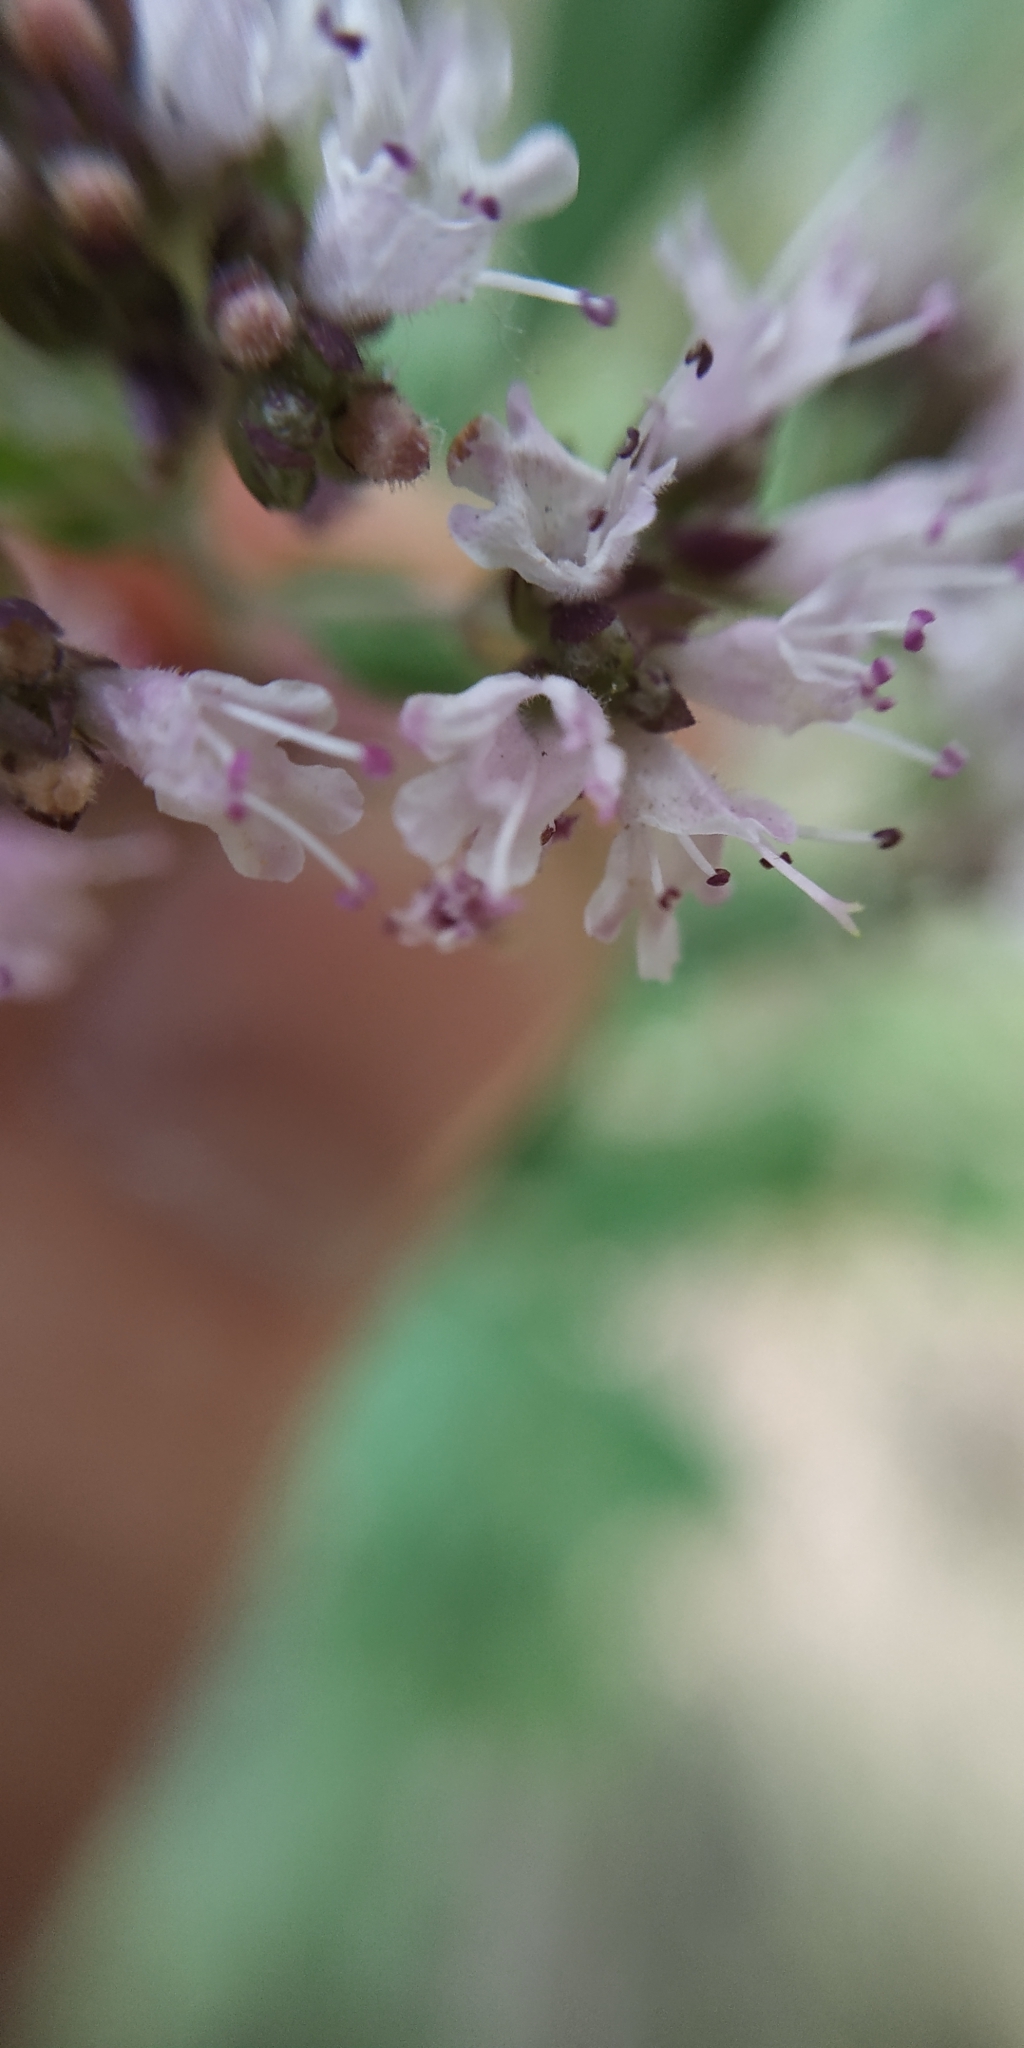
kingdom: Plantae
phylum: Tracheophyta
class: Magnoliopsida
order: Lamiales
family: Lamiaceae
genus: Origanum
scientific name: Origanum vulgare
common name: Wild marjoram
